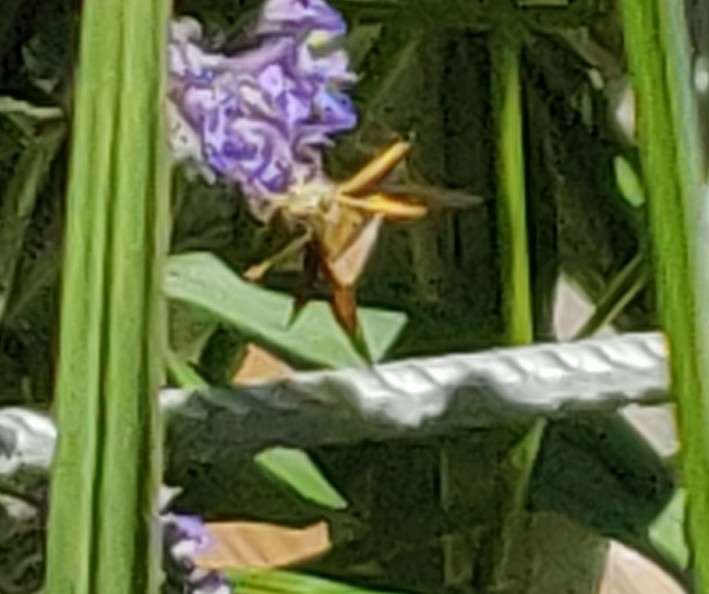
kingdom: Animalia
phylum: Arthropoda
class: Insecta
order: Lepidoptera
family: Hesperiidae
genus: Ochlodes
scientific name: Ochlodes venata
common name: Large skipper
